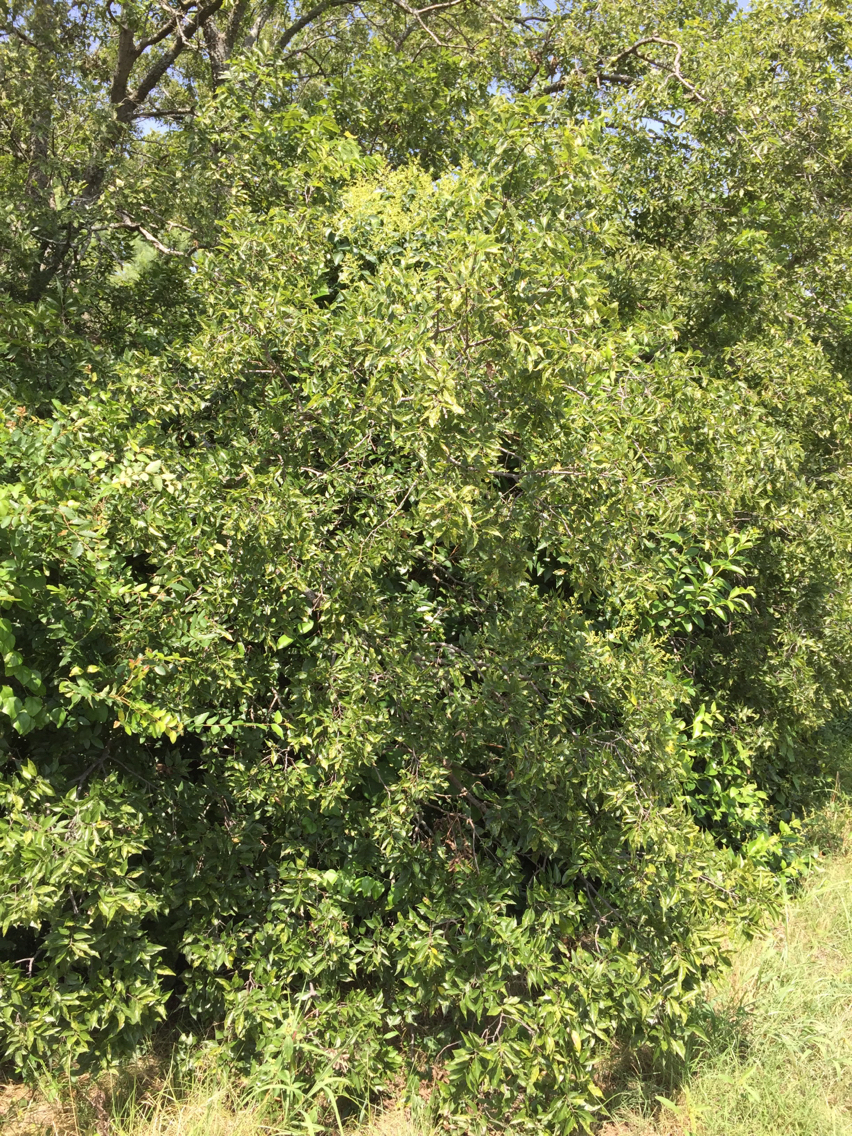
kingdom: Plantae
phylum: Tracheophyta
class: Magnoliopsida
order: Rosales
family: Cannabaceae
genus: Celtis
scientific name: Celtis laevigata
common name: Sugarberry
